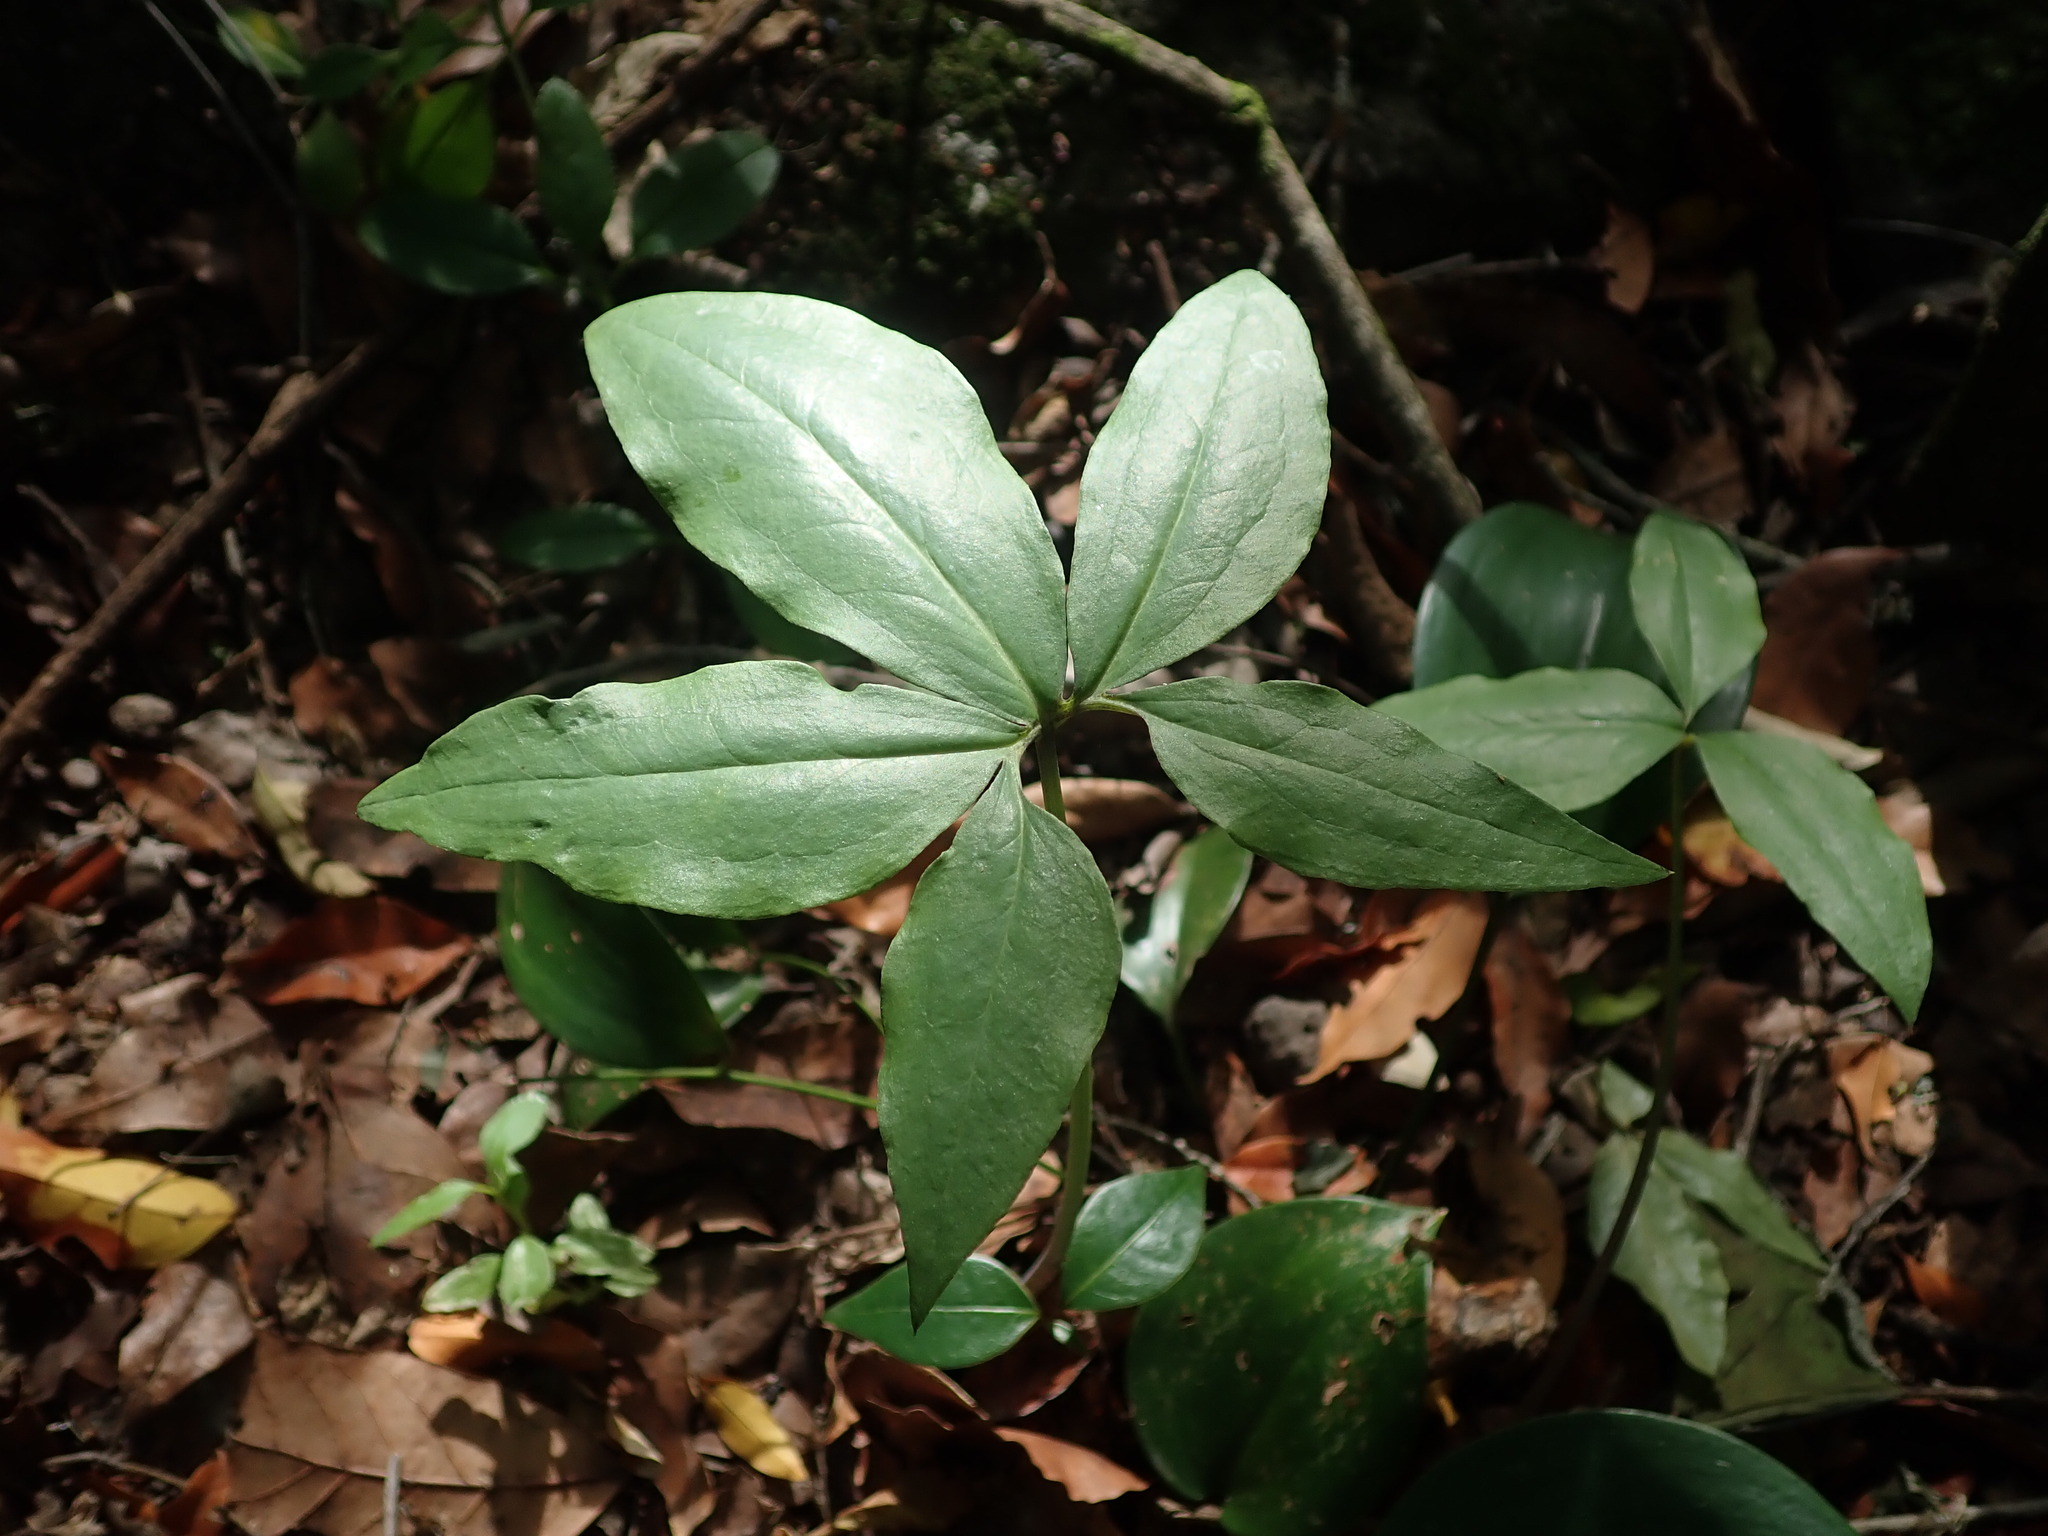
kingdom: Plantae
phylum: Tracheophyta
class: Liliopsida
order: Alismatales
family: Araceae
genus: Dracunculus
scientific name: Dracunculus canariensis
